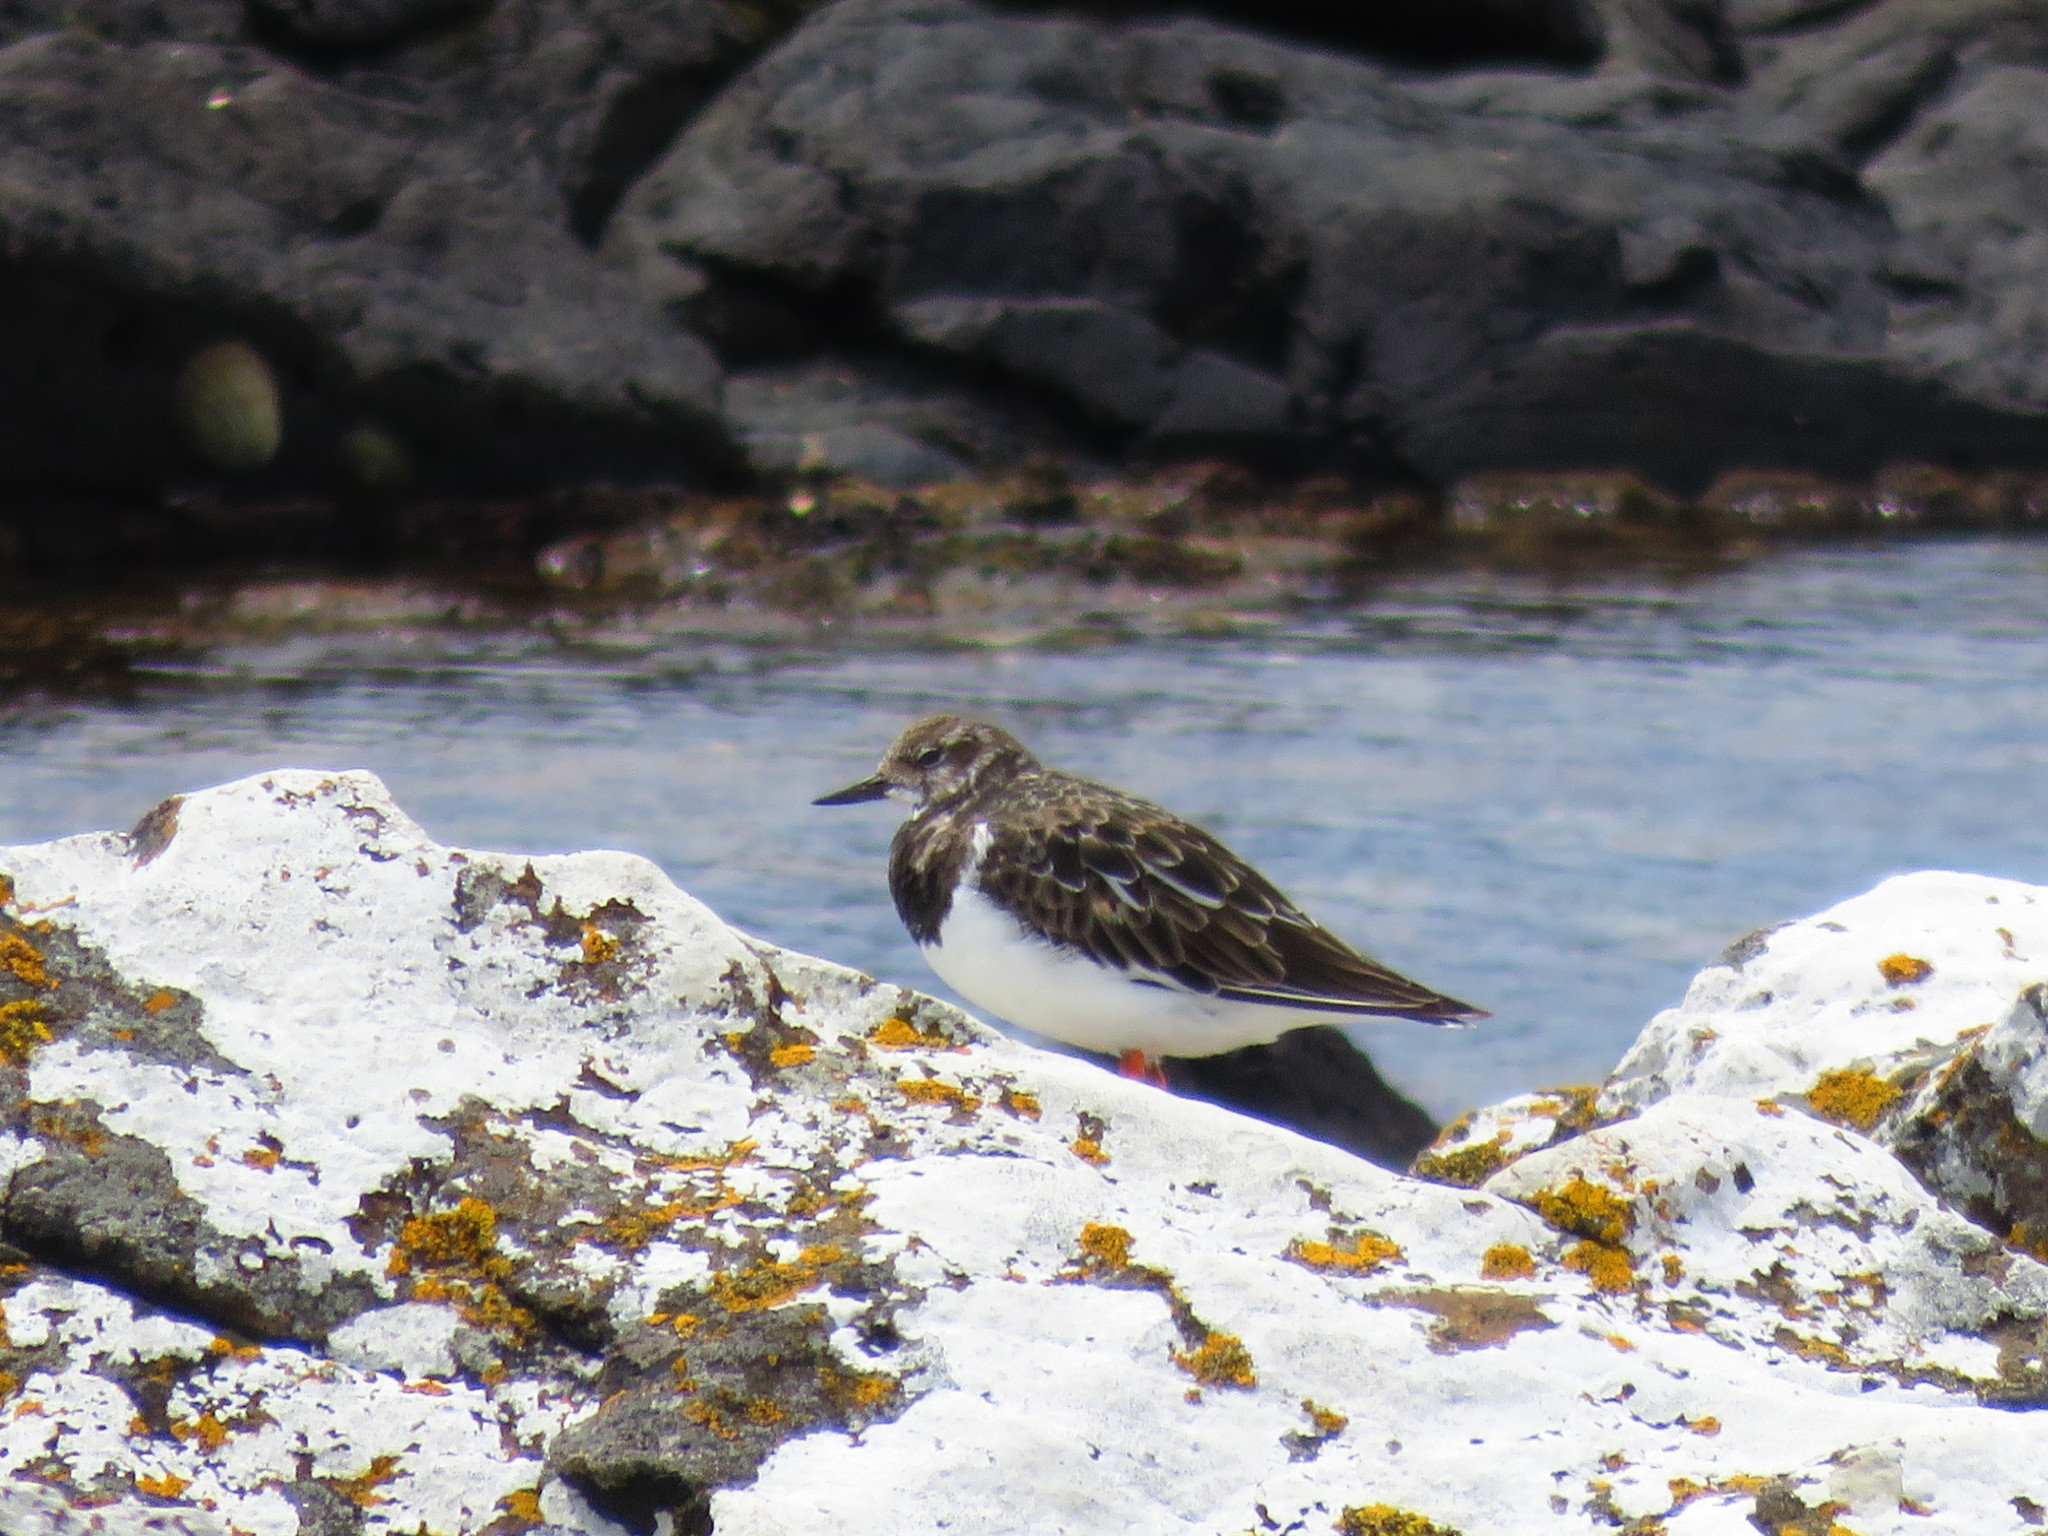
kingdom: Animalia
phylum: Chordata
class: Aves
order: Charadriiformes
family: Scolopacidae
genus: Arenaria
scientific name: Arenaria interpres
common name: Ruddy turnstone
